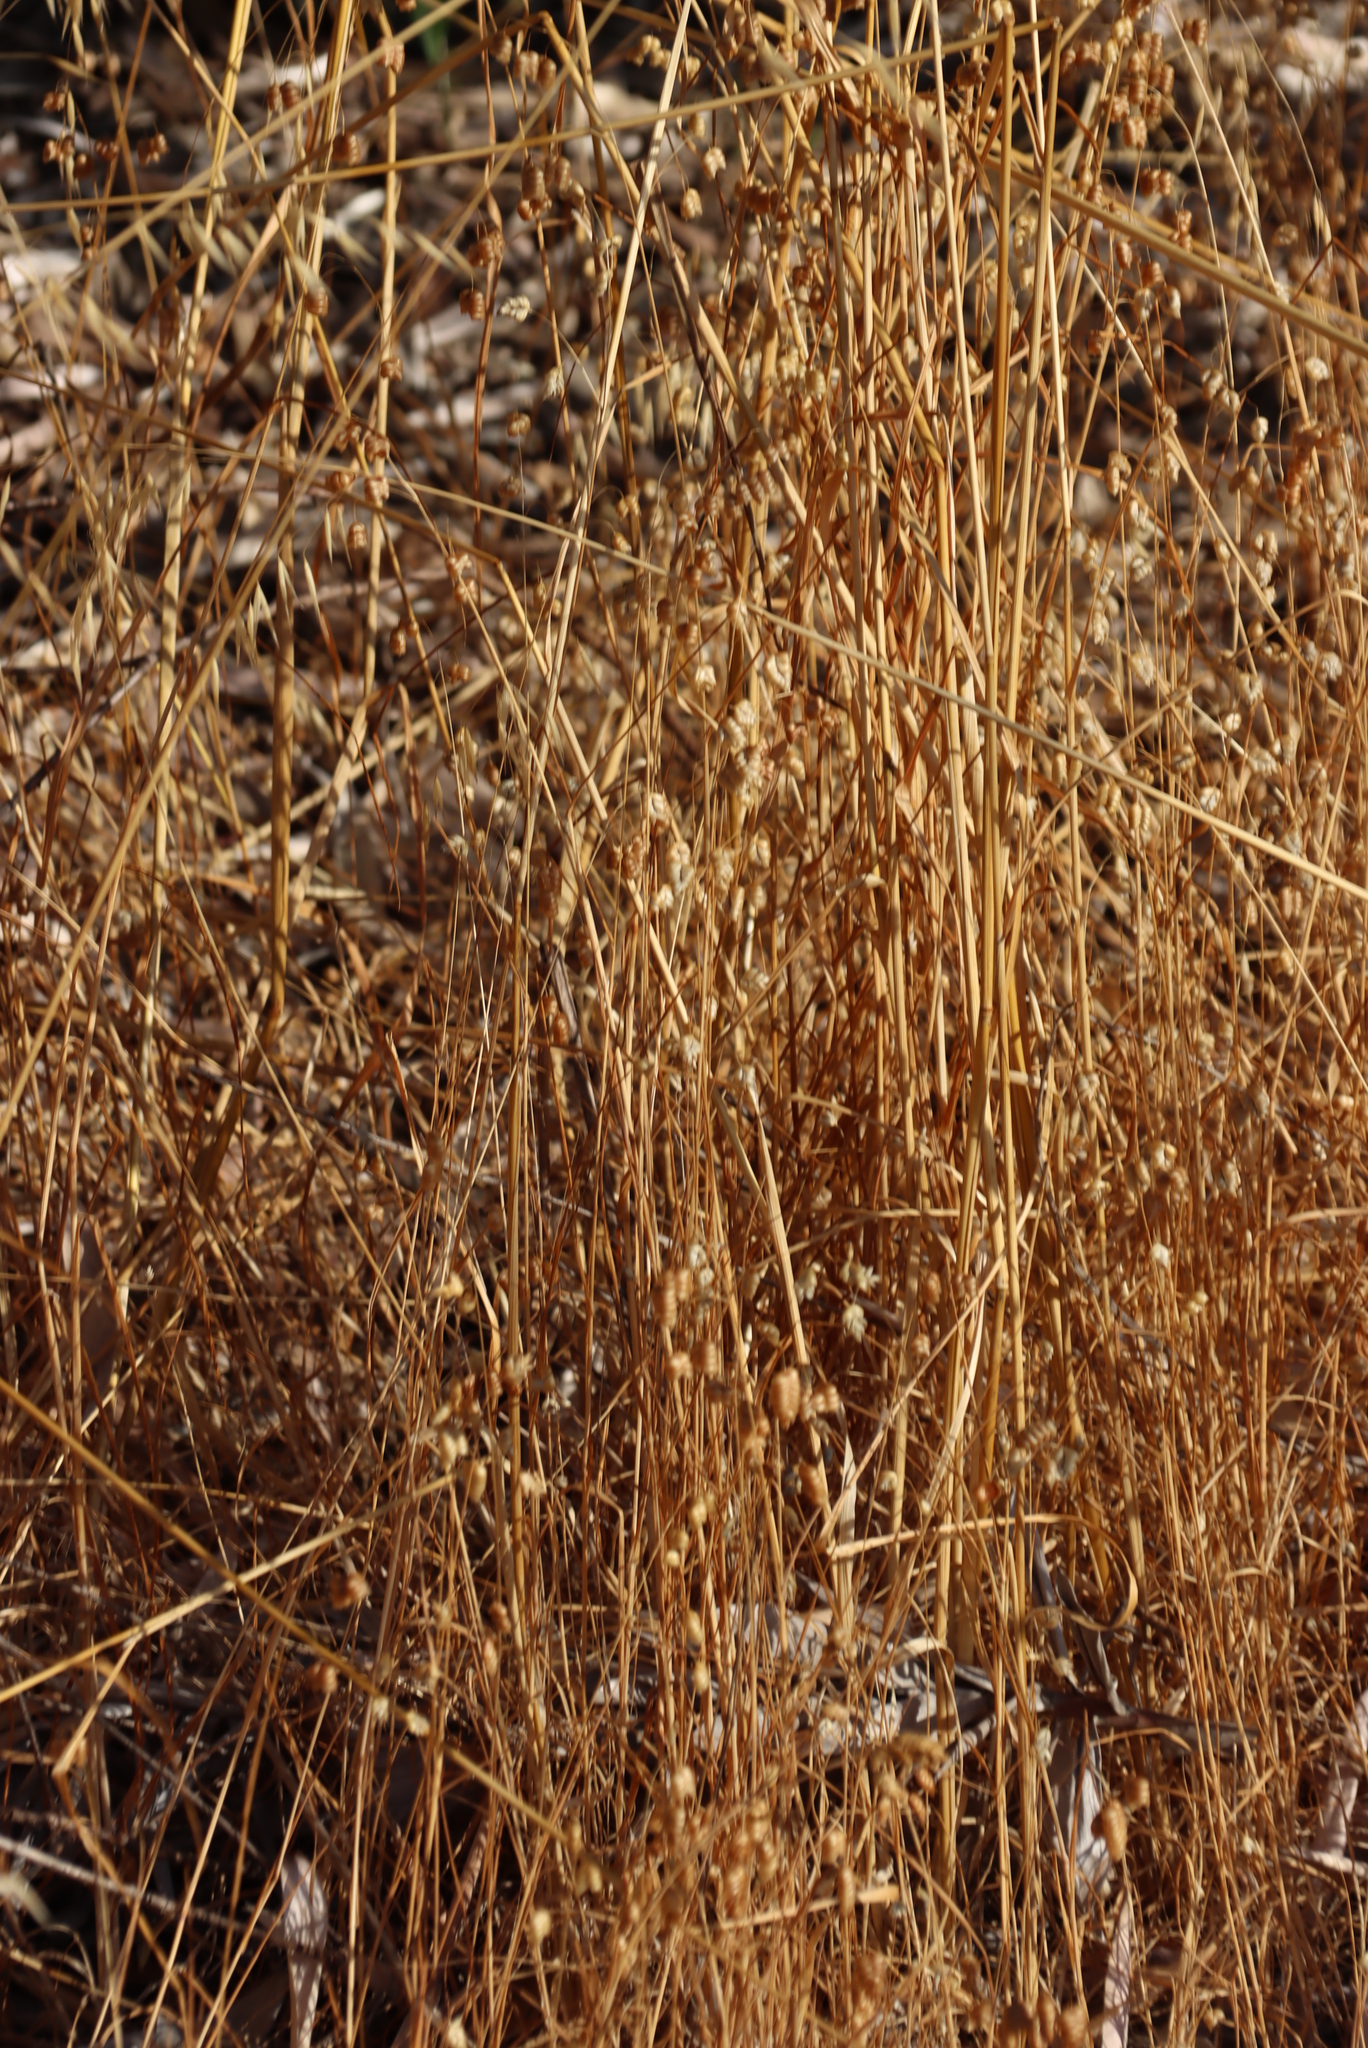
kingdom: Plantae
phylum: Tracheophyta
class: Liliopsida
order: Poales
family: Poaceae
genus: Briza
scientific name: Briza maxima
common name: Big quakinggrass
